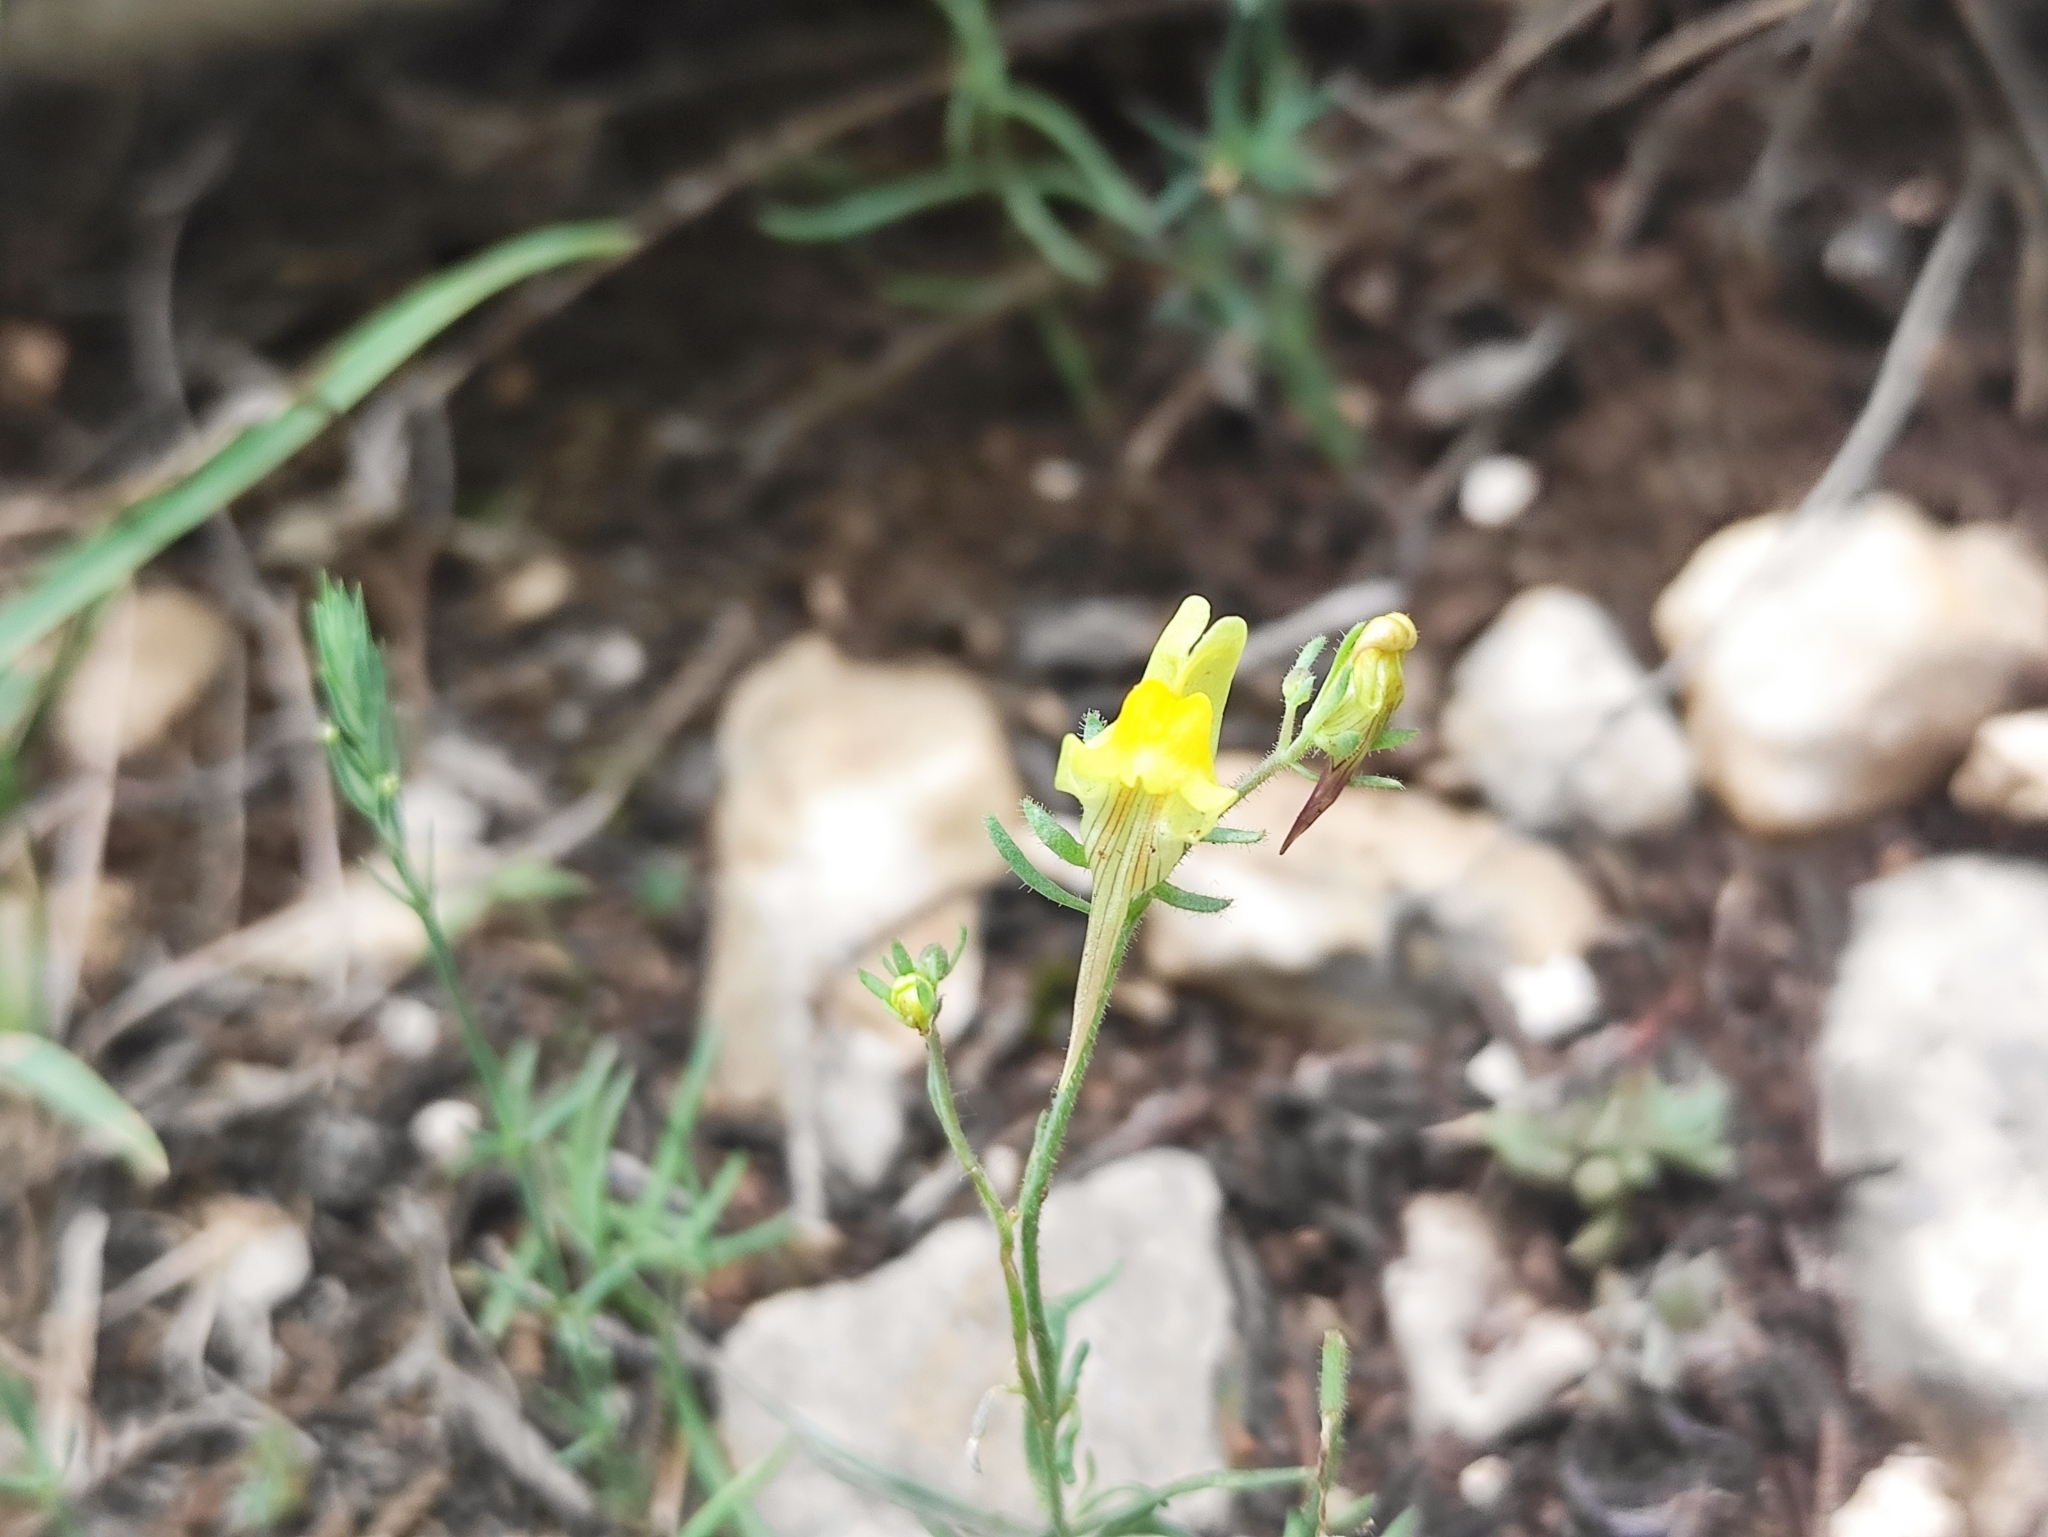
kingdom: Plantae
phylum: Tracheophyta
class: Magnoliopsida
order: Lamiales
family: Plantaginaceae
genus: Linaria
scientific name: Linaria supina
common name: Prostrate toadflax
